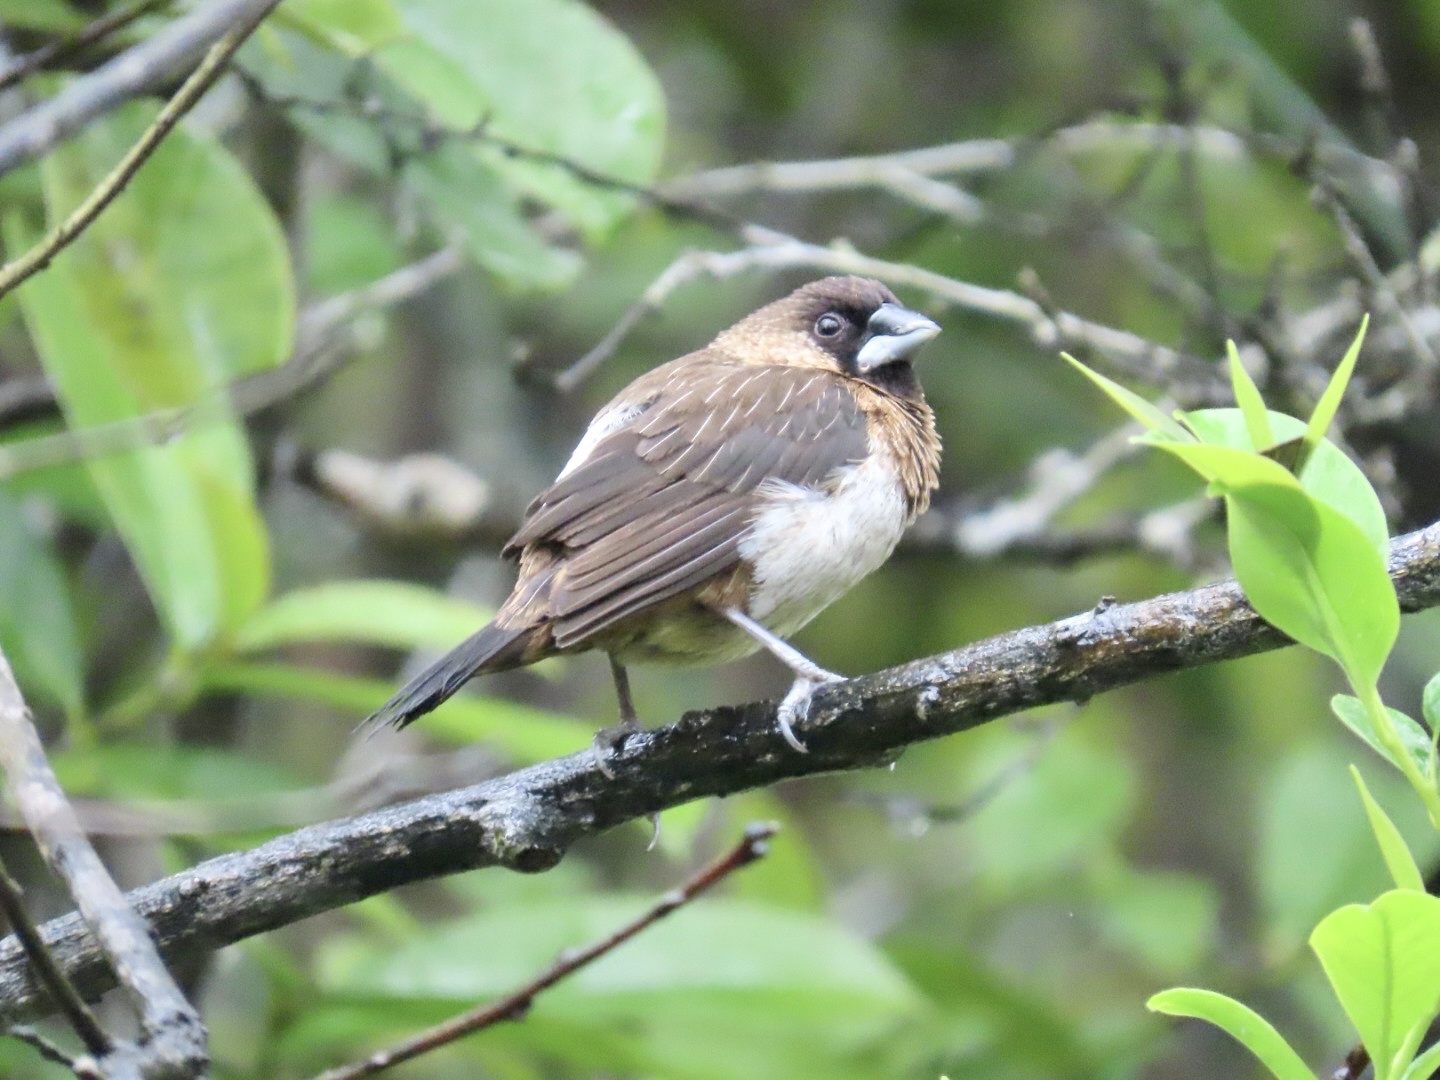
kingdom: Animalia
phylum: Chordata
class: Aves
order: Passeriformes
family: Estrildidae
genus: Lonchura
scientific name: Lonchura striata
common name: White-rumped munia
